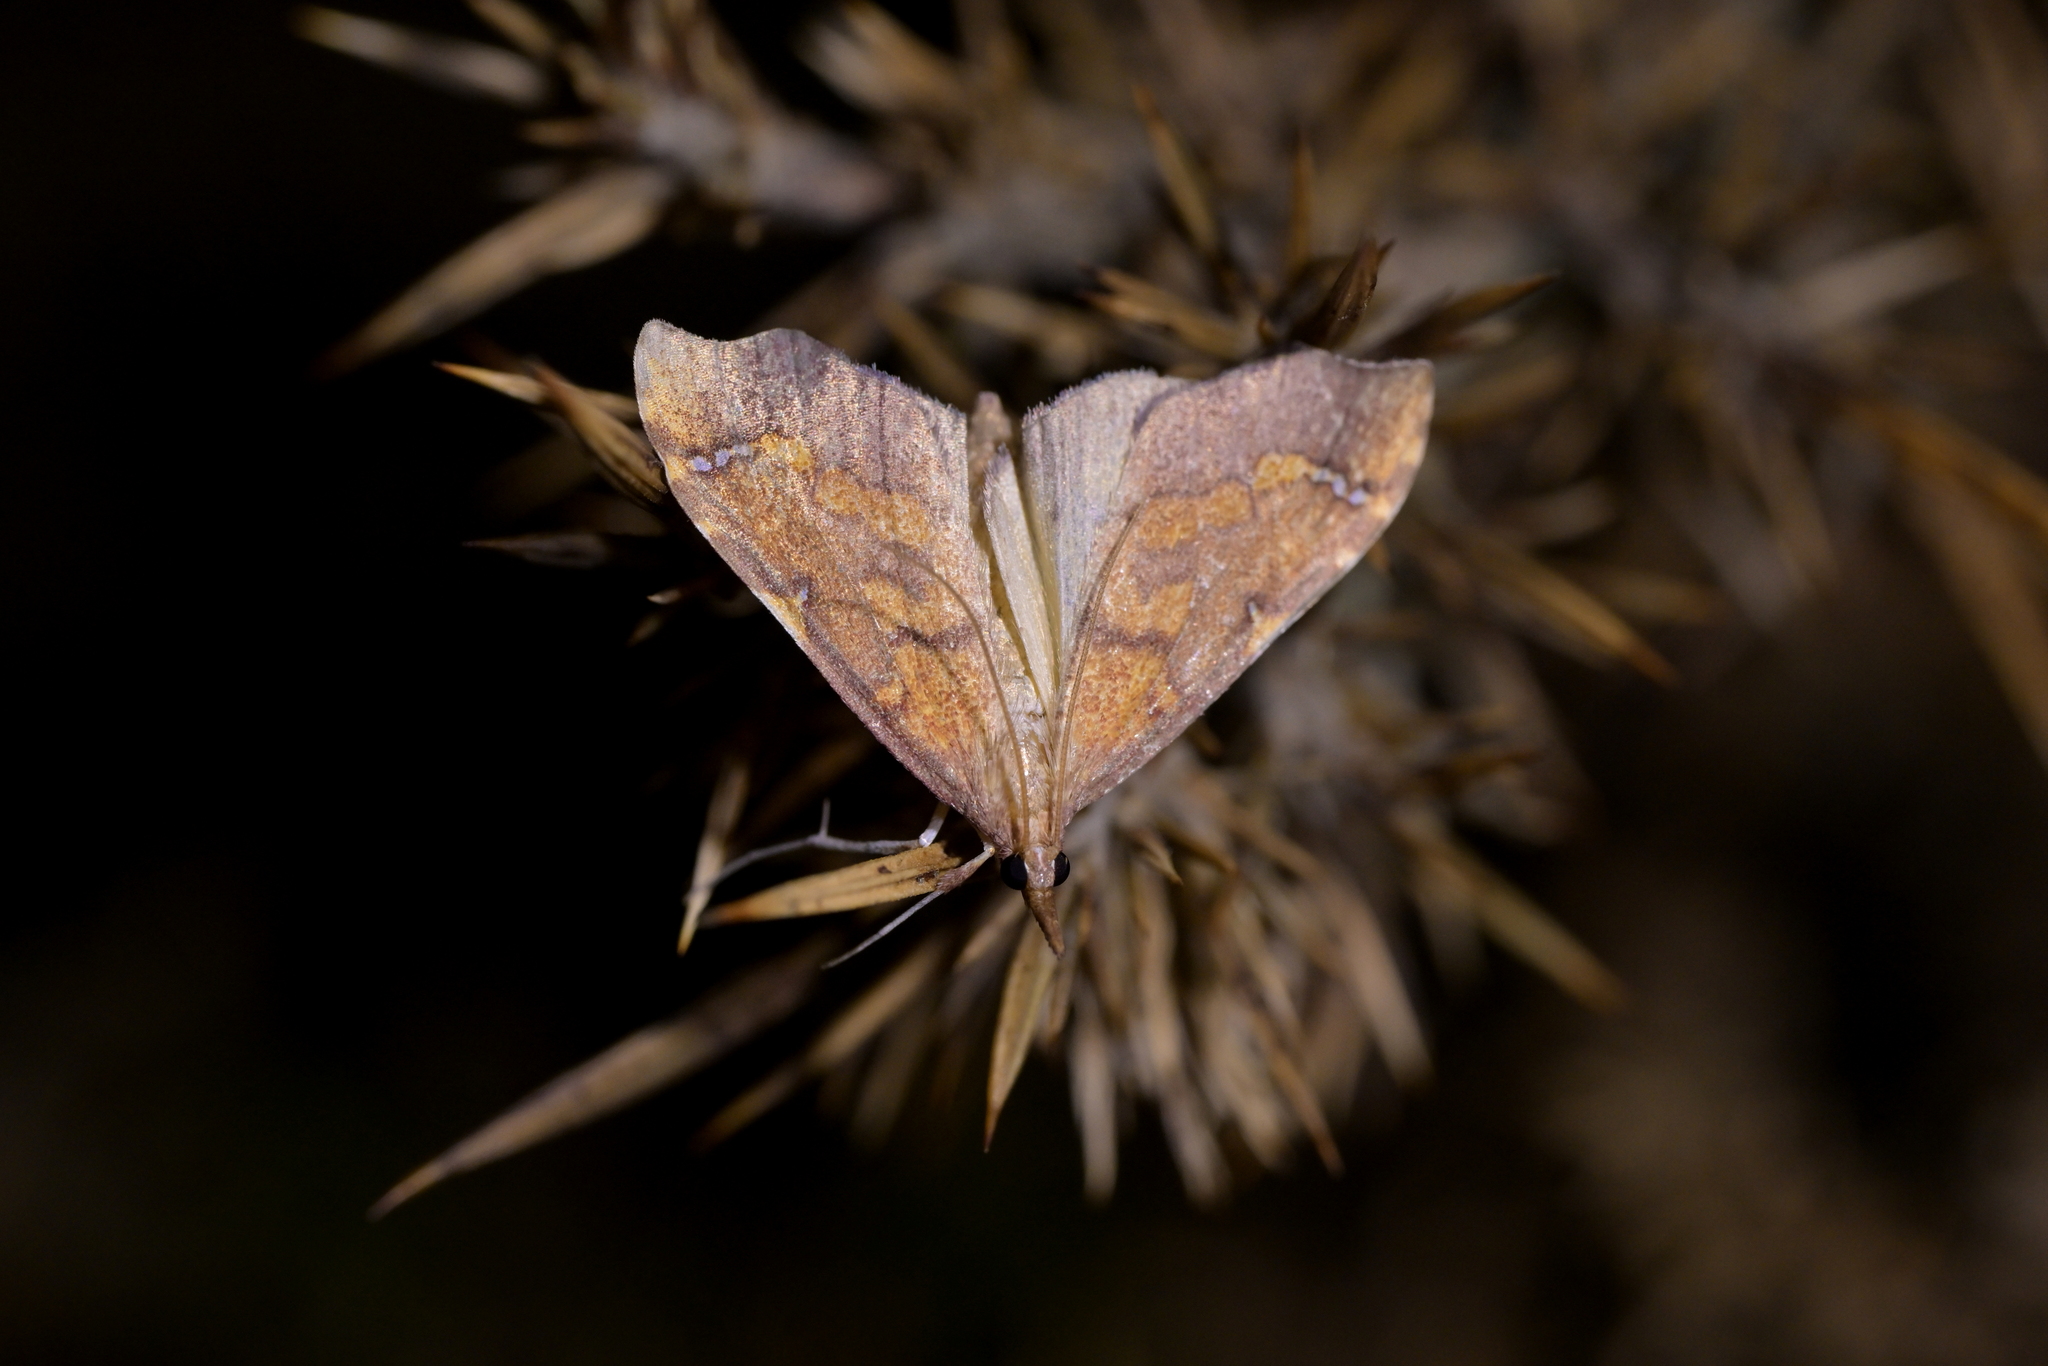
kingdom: Animalia
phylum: Arthropoda
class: Insecta
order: Lepidoptera
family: Crambidae
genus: Deana
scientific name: Deana hybreasalis
